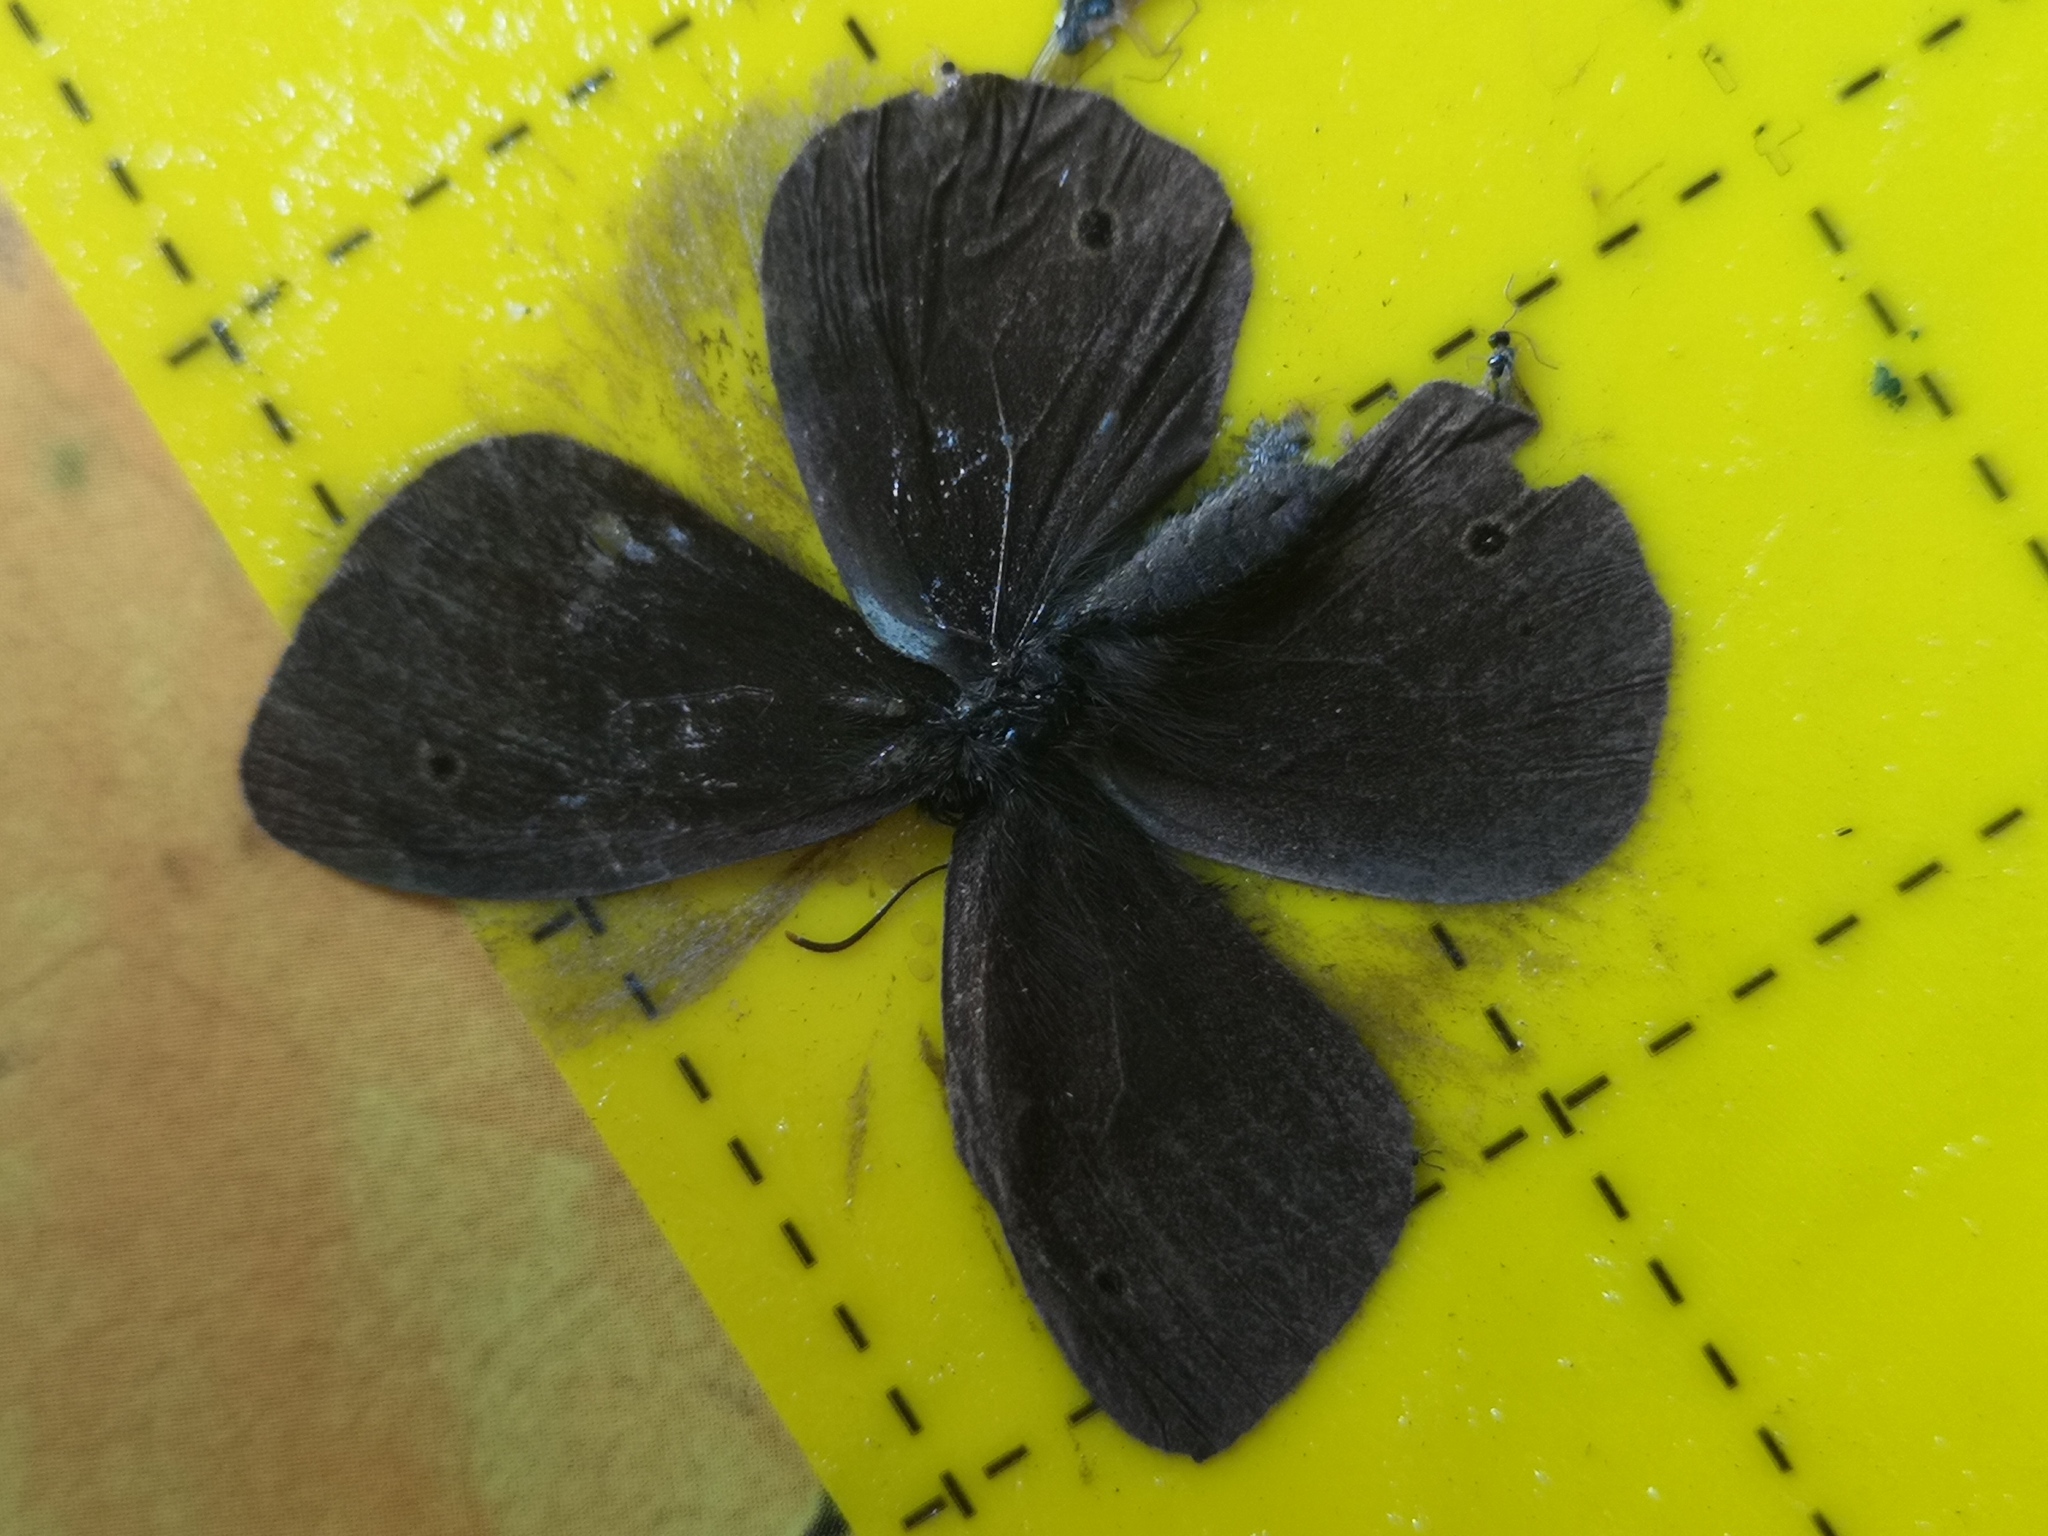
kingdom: Animalia
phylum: Arthropoda
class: Insecta
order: Lepidoptera
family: Nymphalidae
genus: Aphantopus
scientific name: Aphantopus hyperantus
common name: Ringlet
